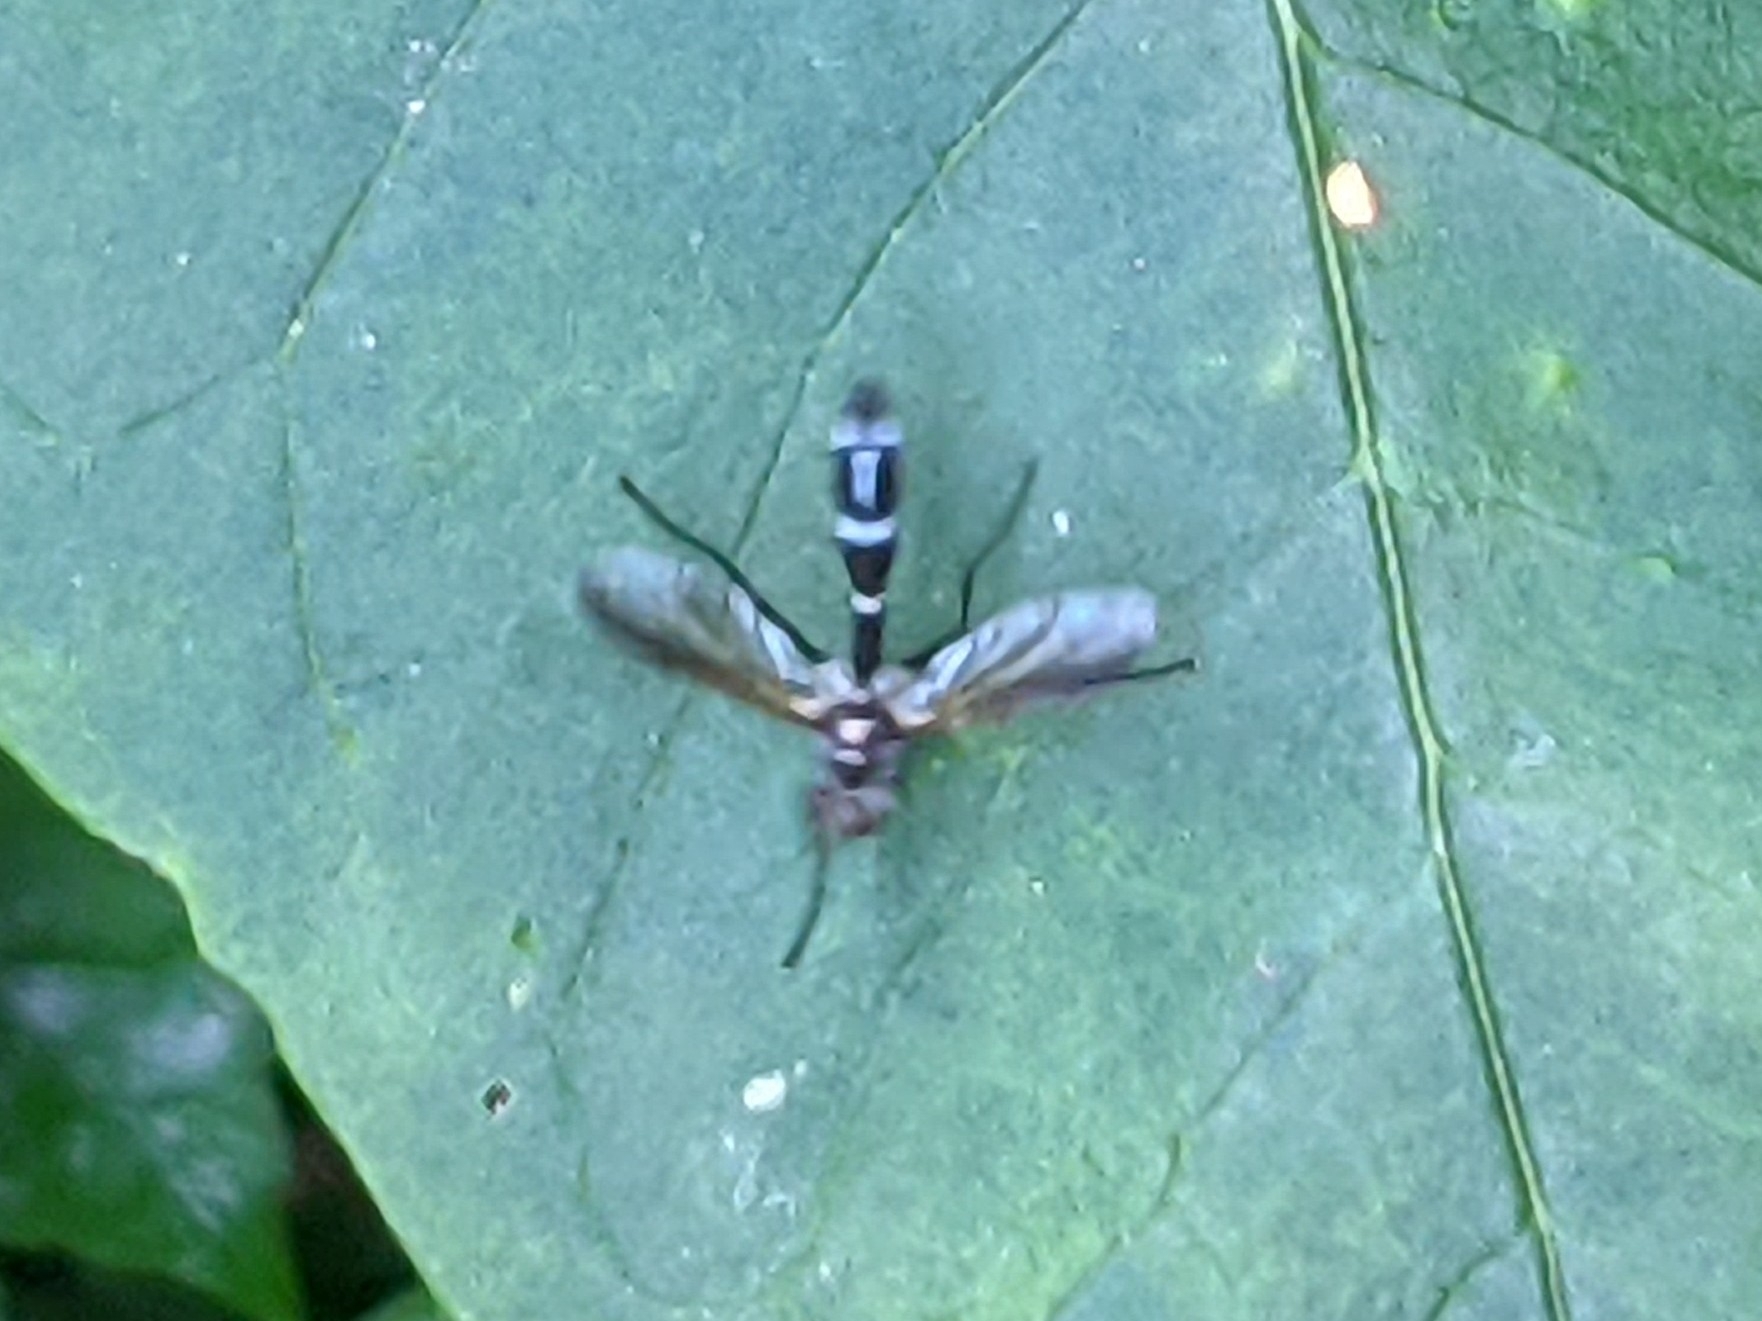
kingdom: Animalia
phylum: Arthropoda
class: Insecta
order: Diptera
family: Tachinidae
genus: Cordyligaster
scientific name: Cordyligaster septentrionalis
